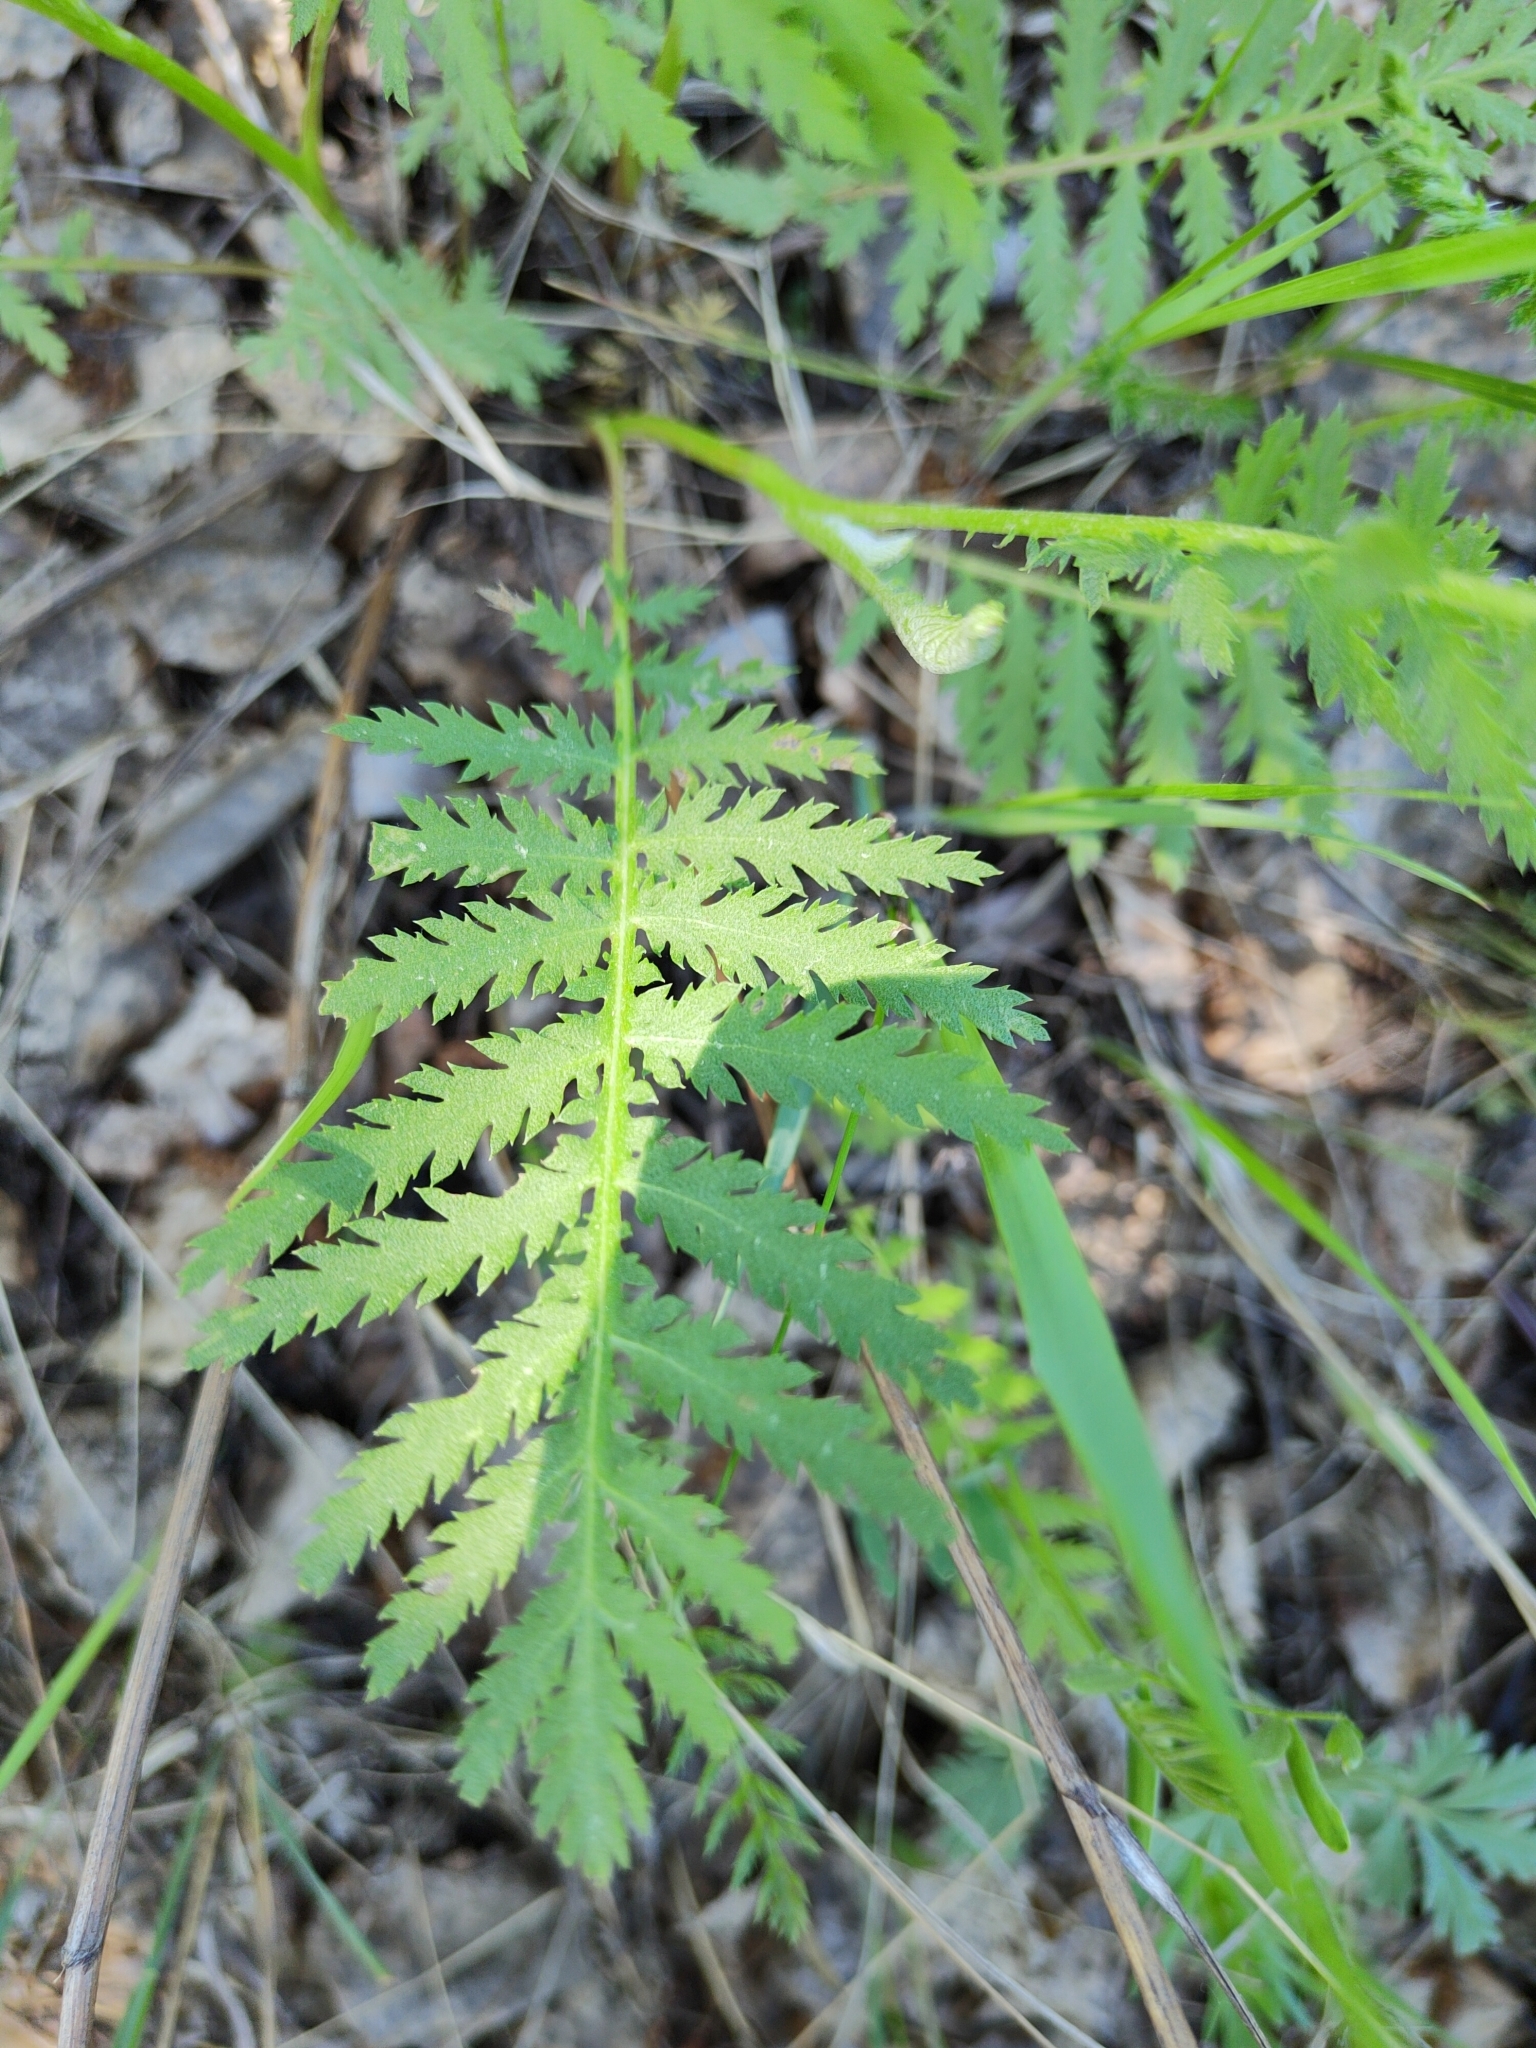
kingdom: Plantae
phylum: Tracheophyta
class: Magnoliopsida
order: Asterales
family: Asteraceae
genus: Tanacetum
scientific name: Tanacetum vulgare
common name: Common tansy
